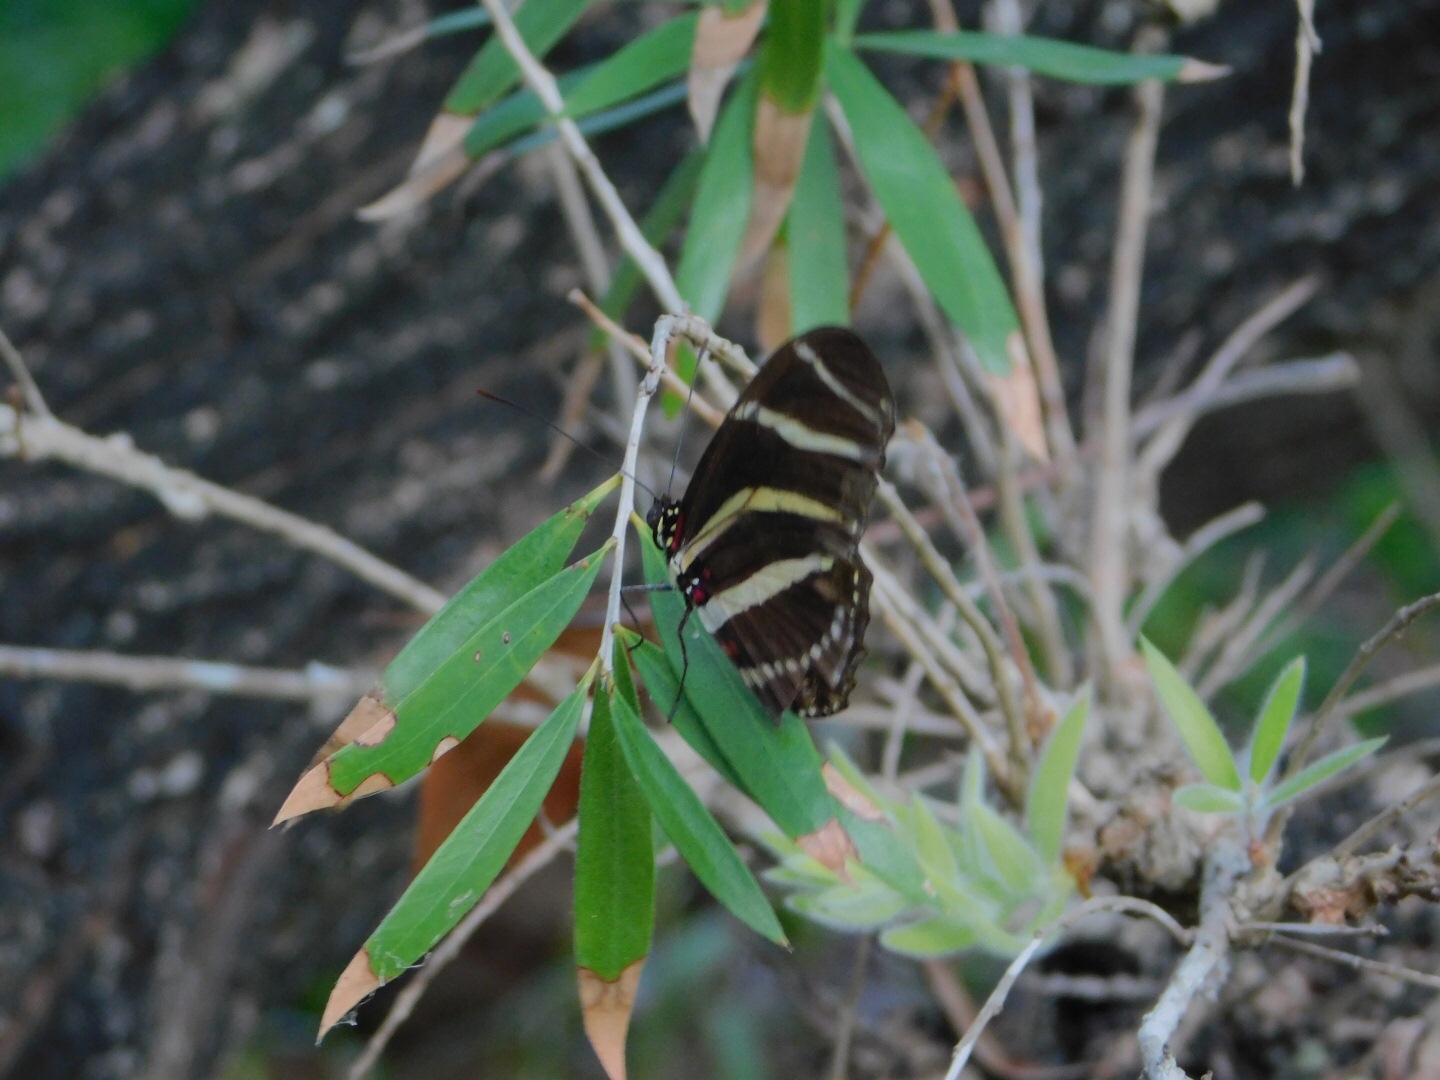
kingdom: Animalia
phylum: Arthropoda
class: Insecta
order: Lepidoptera
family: Nymphalidae
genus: Heliconius
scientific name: Heliconius charithonia
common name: Zebra long wing
